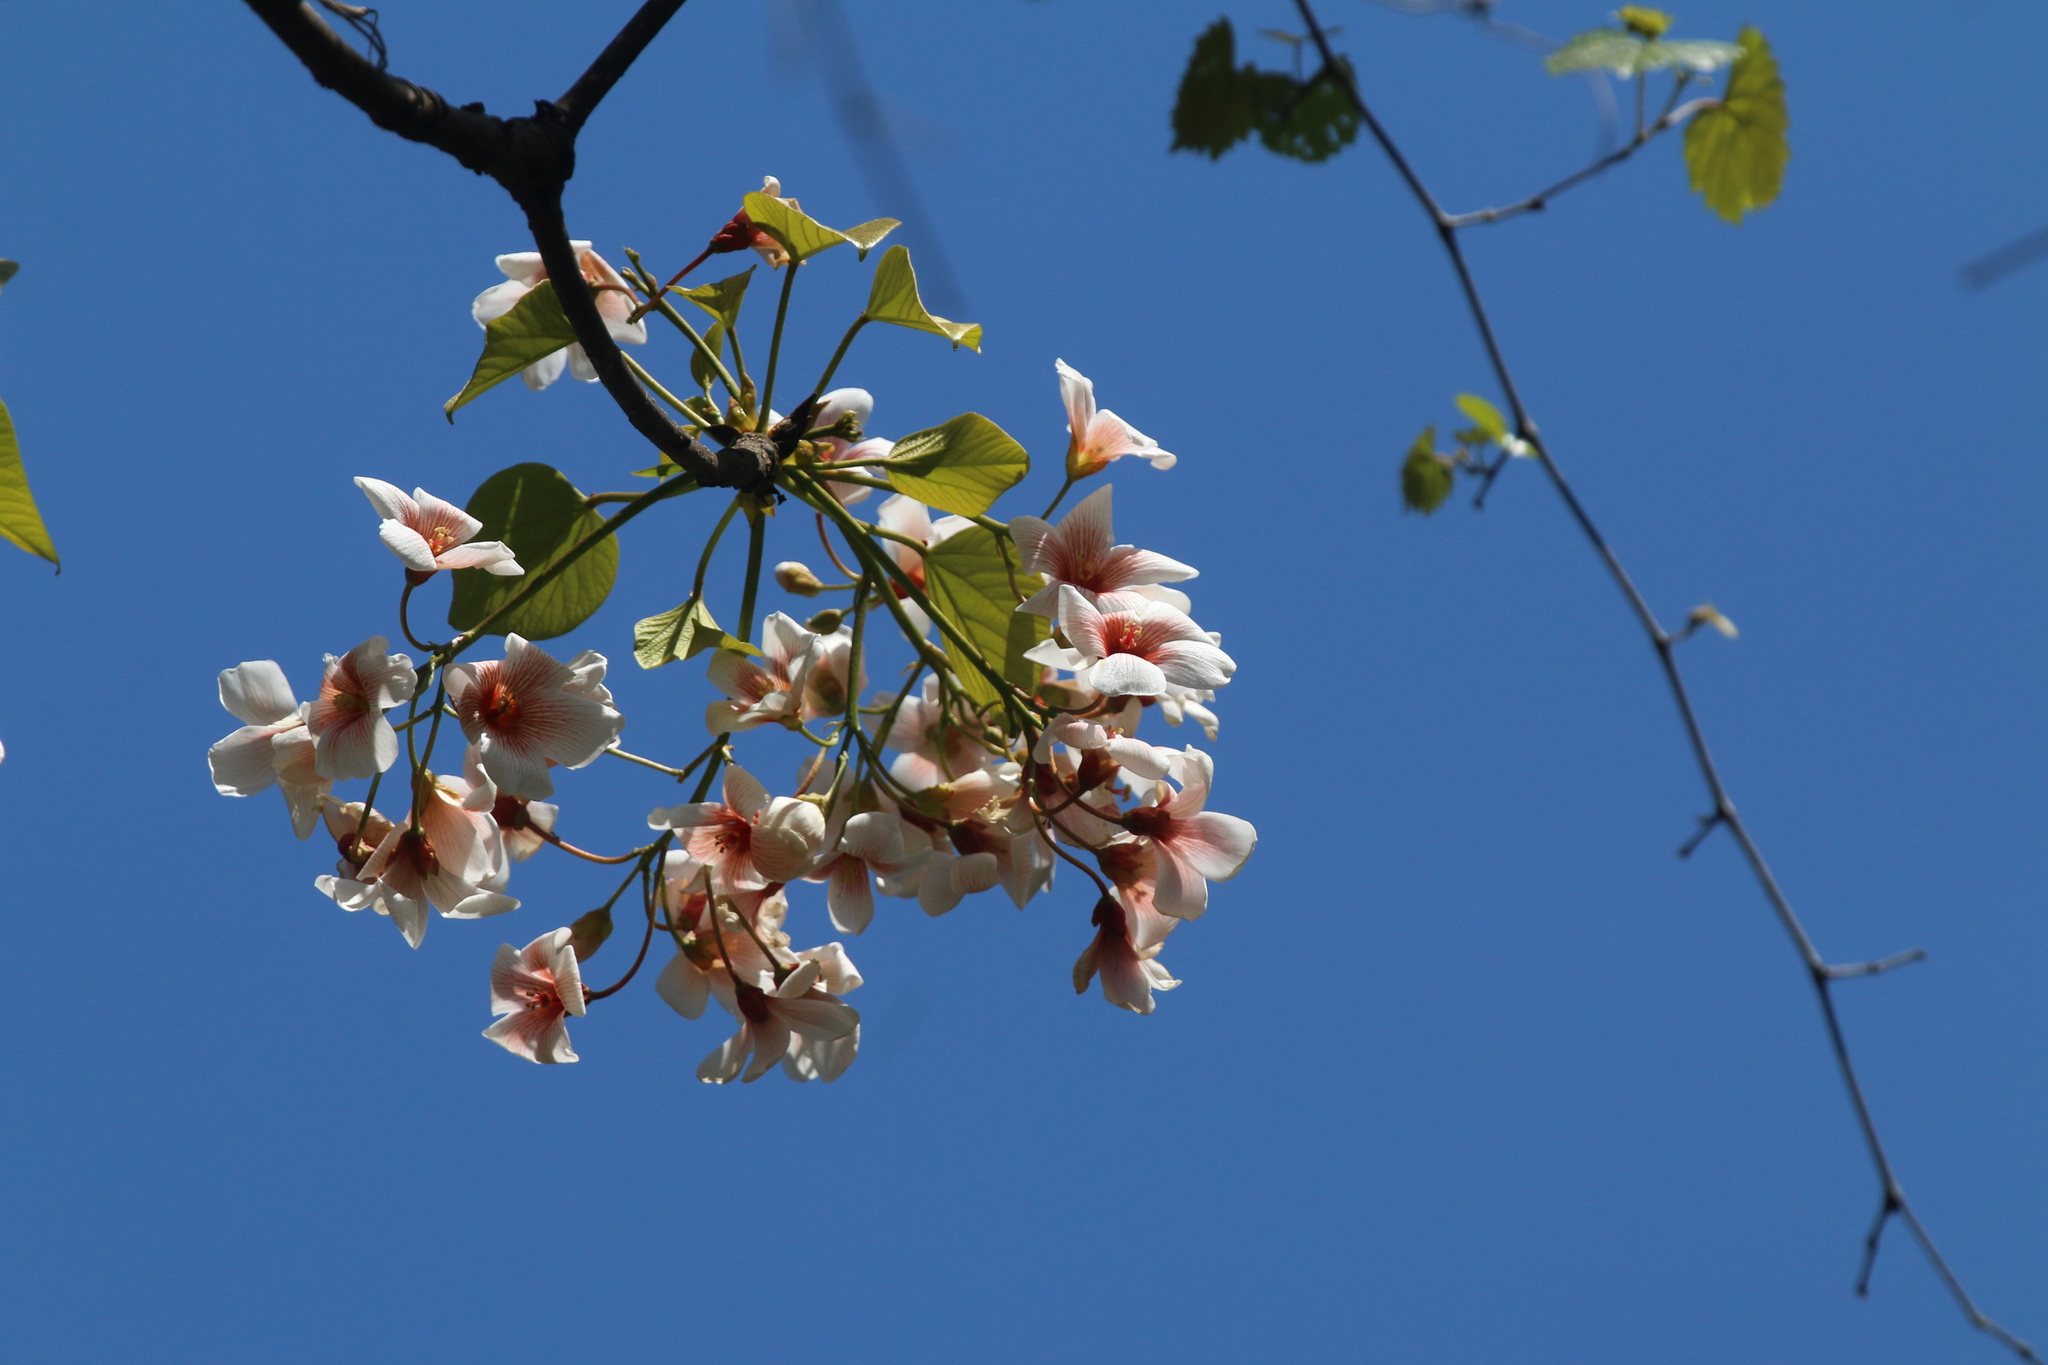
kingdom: Plantae
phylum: Tracheophyta
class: Magnoliopsida
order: Malpighiales
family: Euphorbiaceae
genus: Vernicia
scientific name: Vernicia fordii
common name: Tungoil tree
